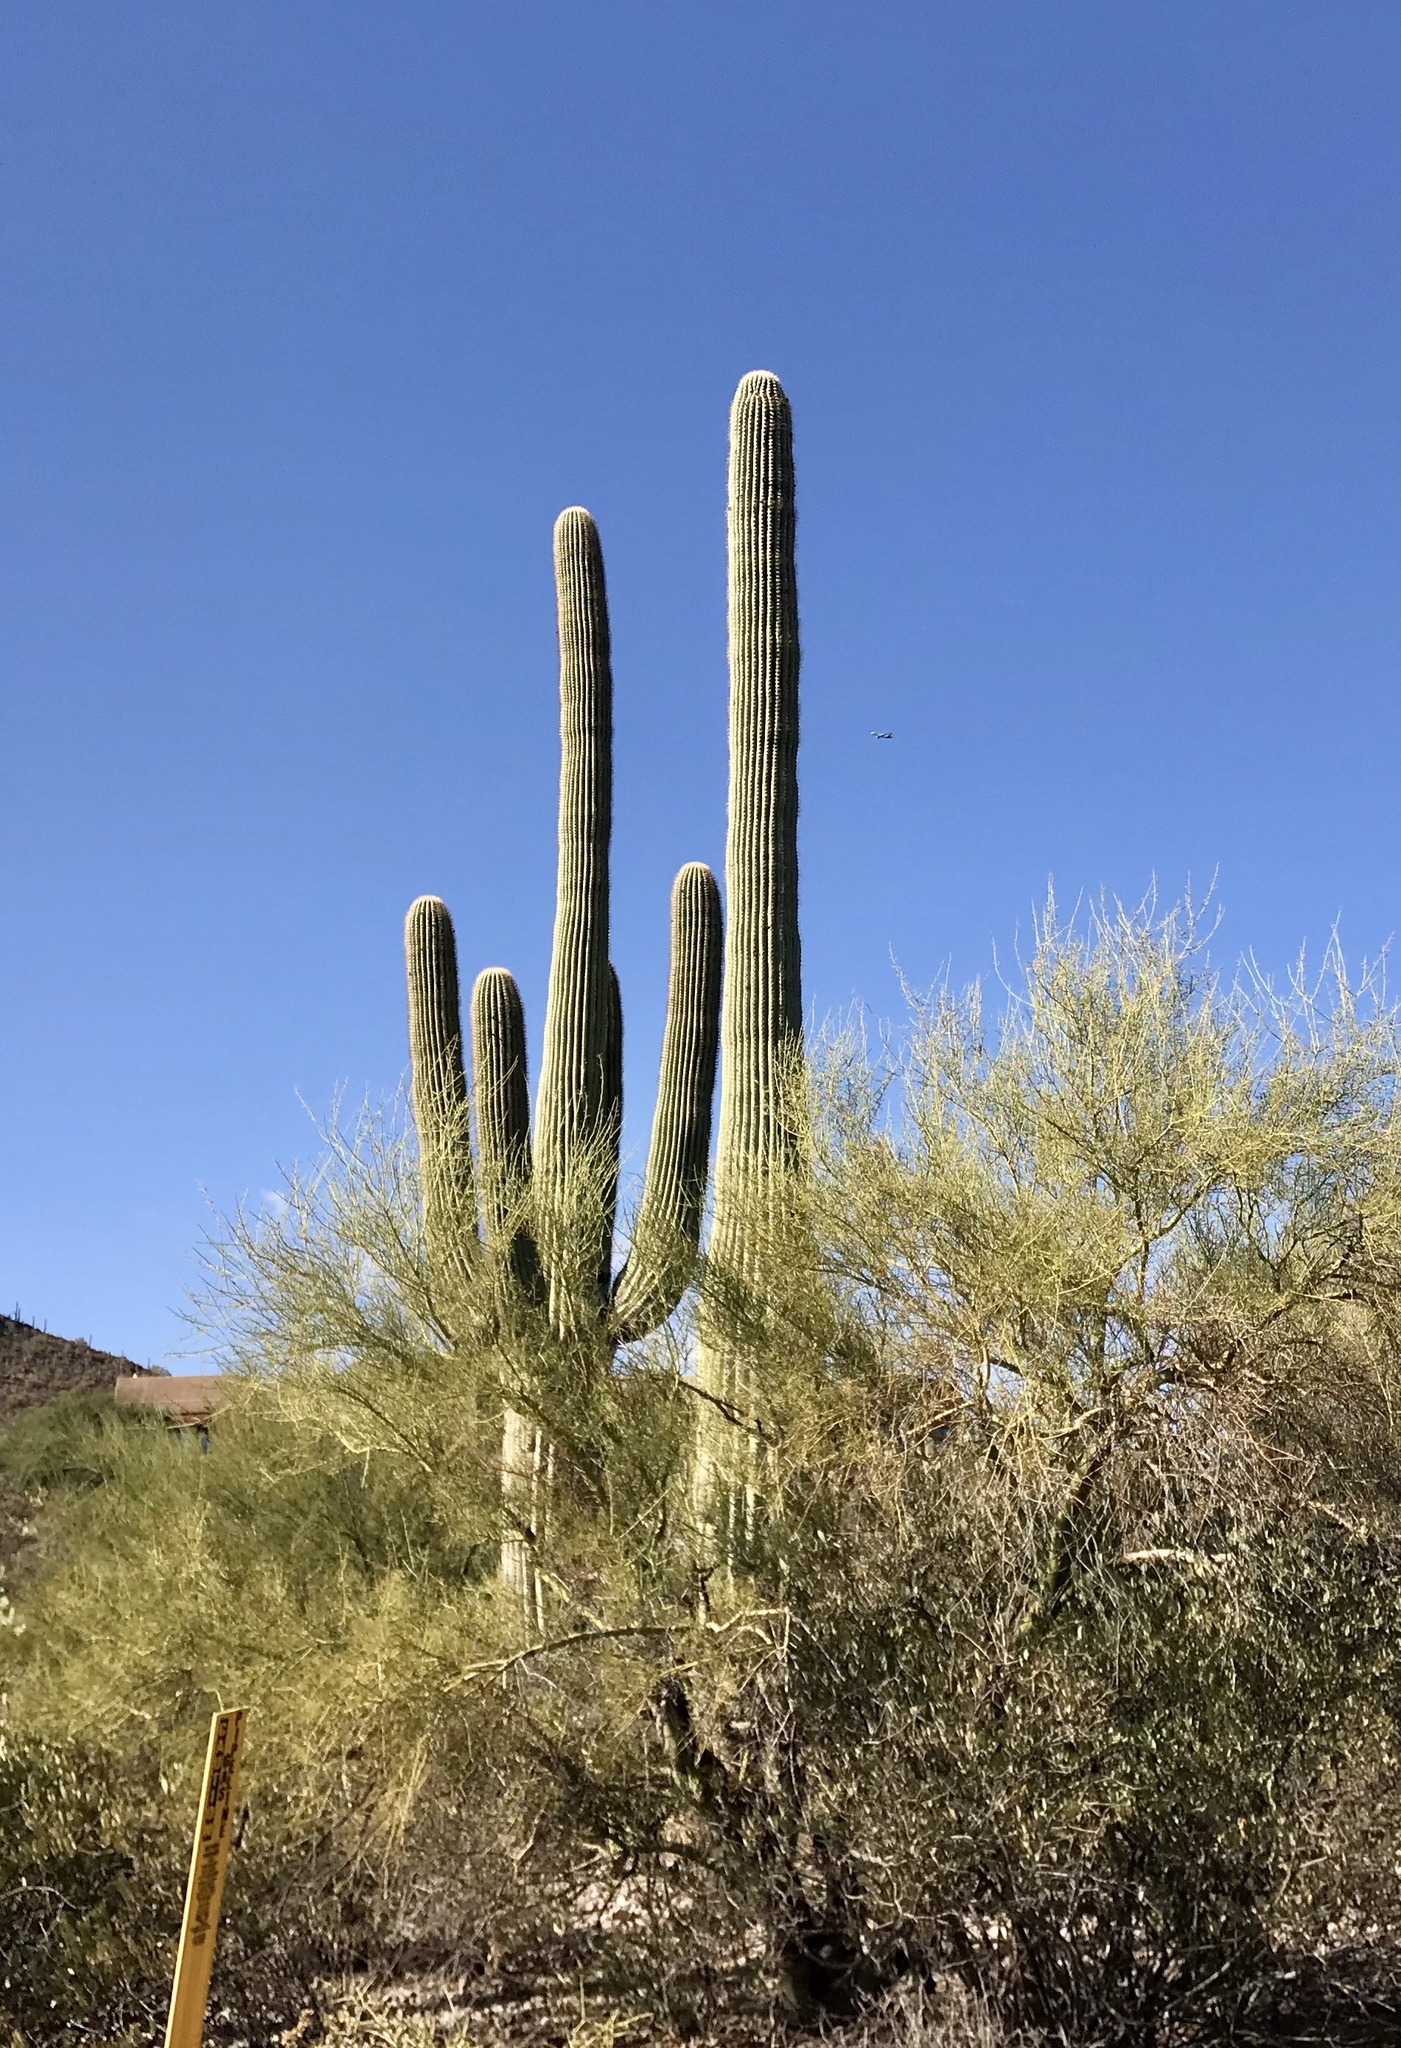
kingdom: Plantae
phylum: Tracheophyta
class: Magnoliopsida
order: Caryophyllales
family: Cactaceae
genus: Carnegiea
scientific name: Carnegiea gigantea
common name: Saguaro
